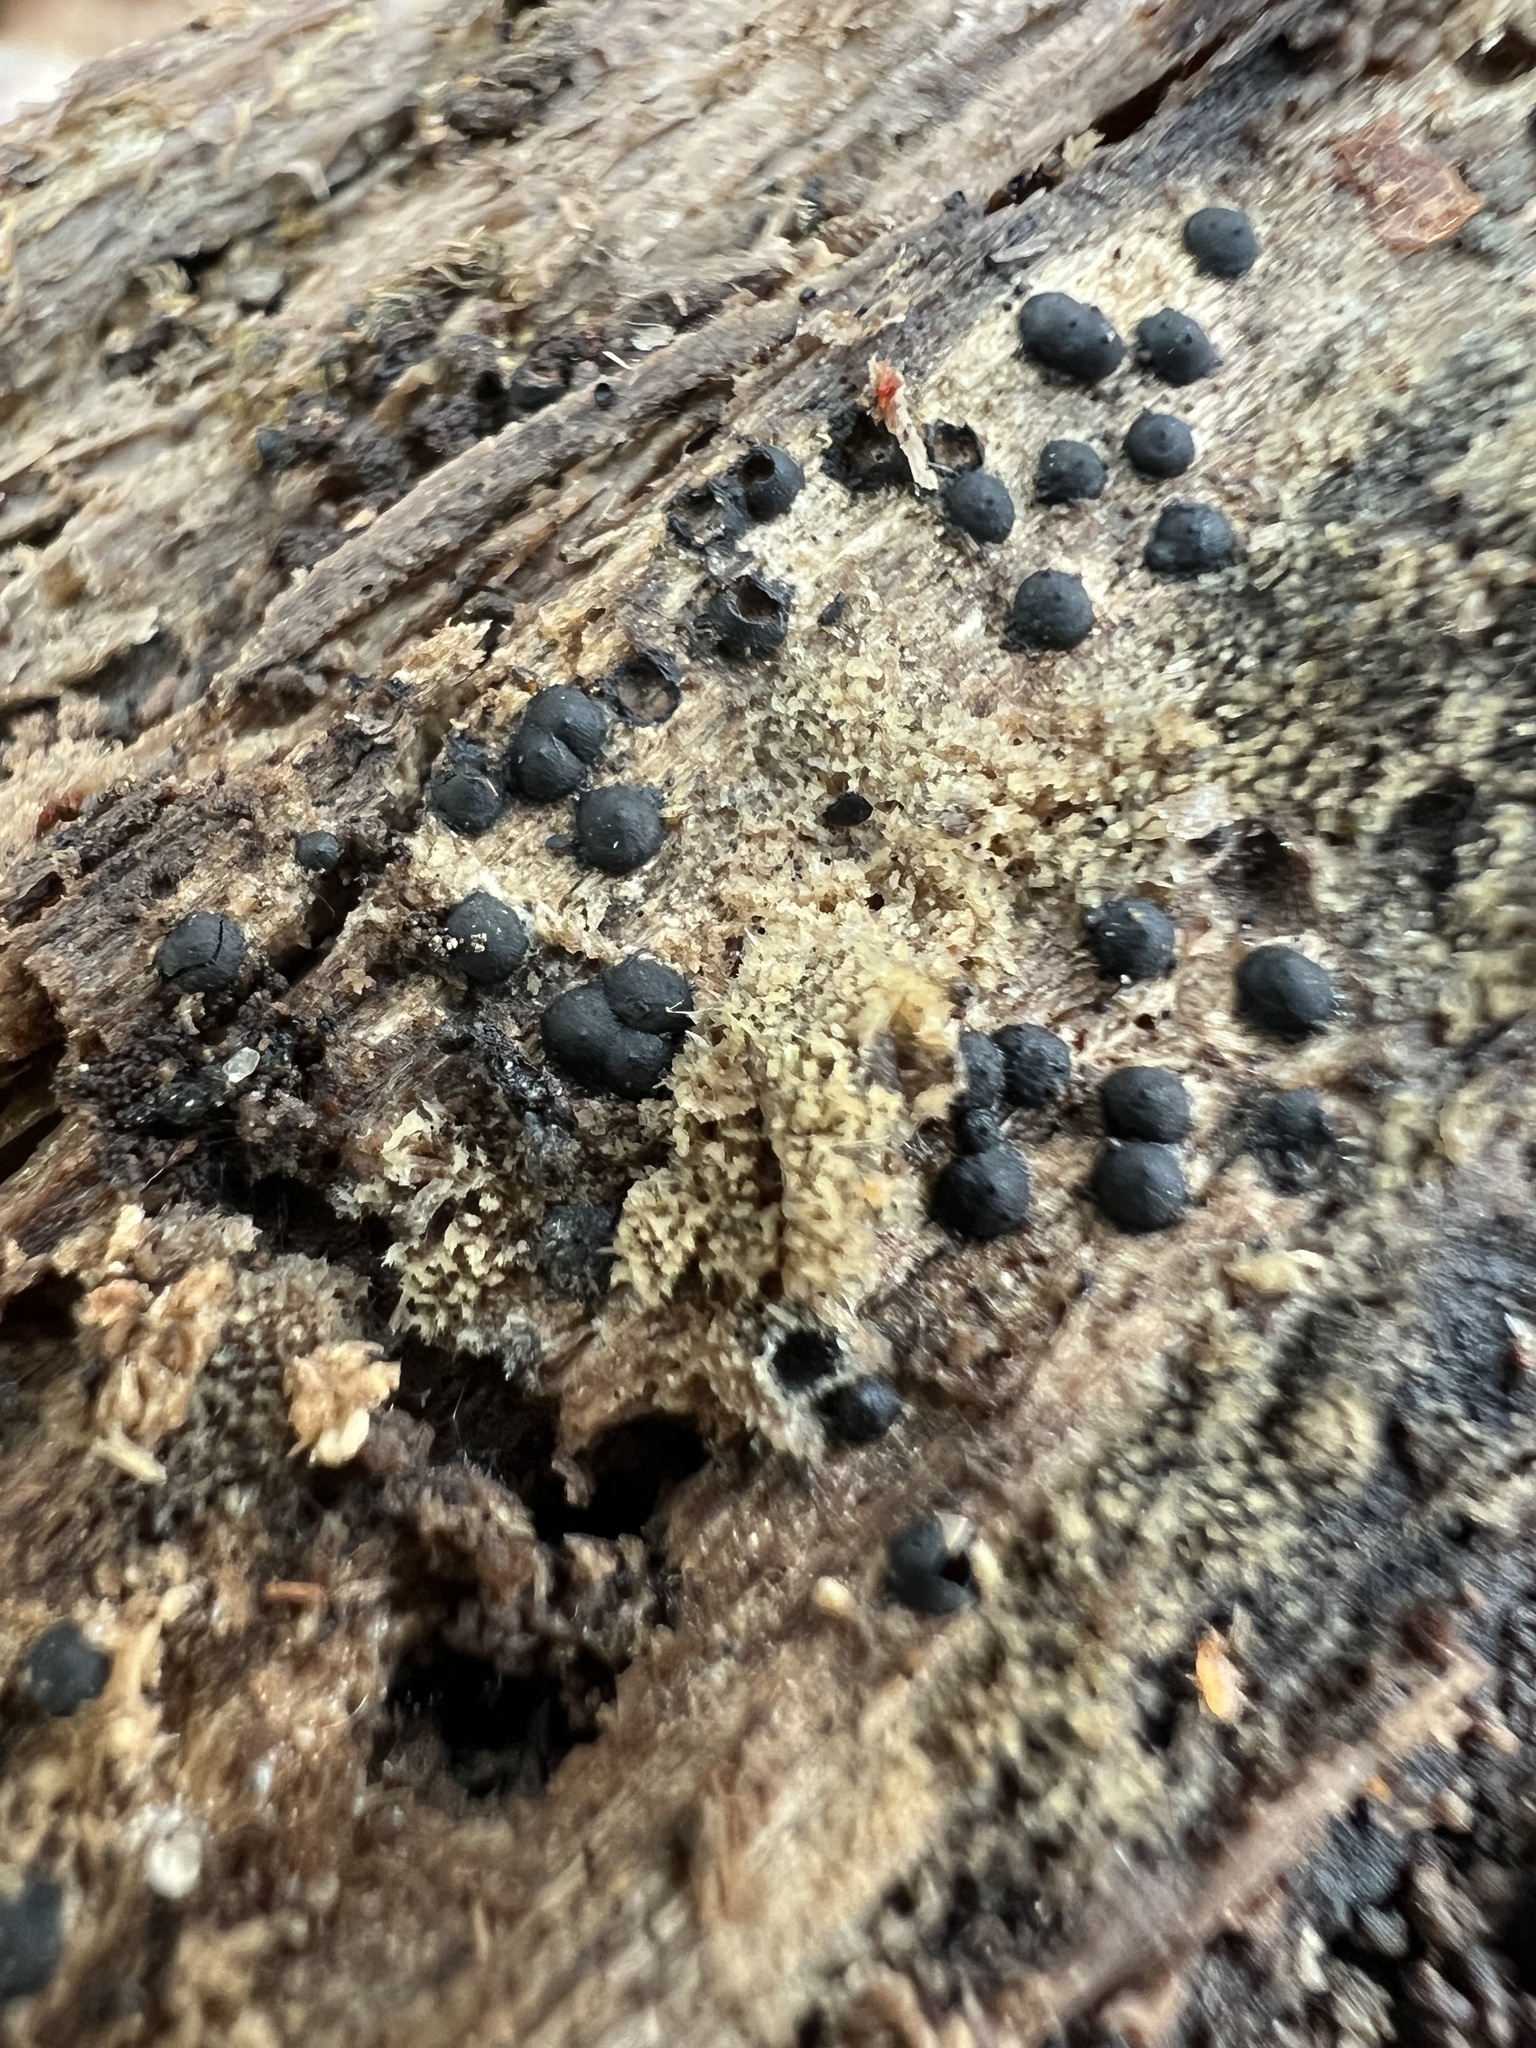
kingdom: Fungi
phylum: Ascomycota
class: Sordariomycetes
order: Xylariales
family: Xylariaceae
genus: Rosellinia
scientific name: Rosellinia subiculata
